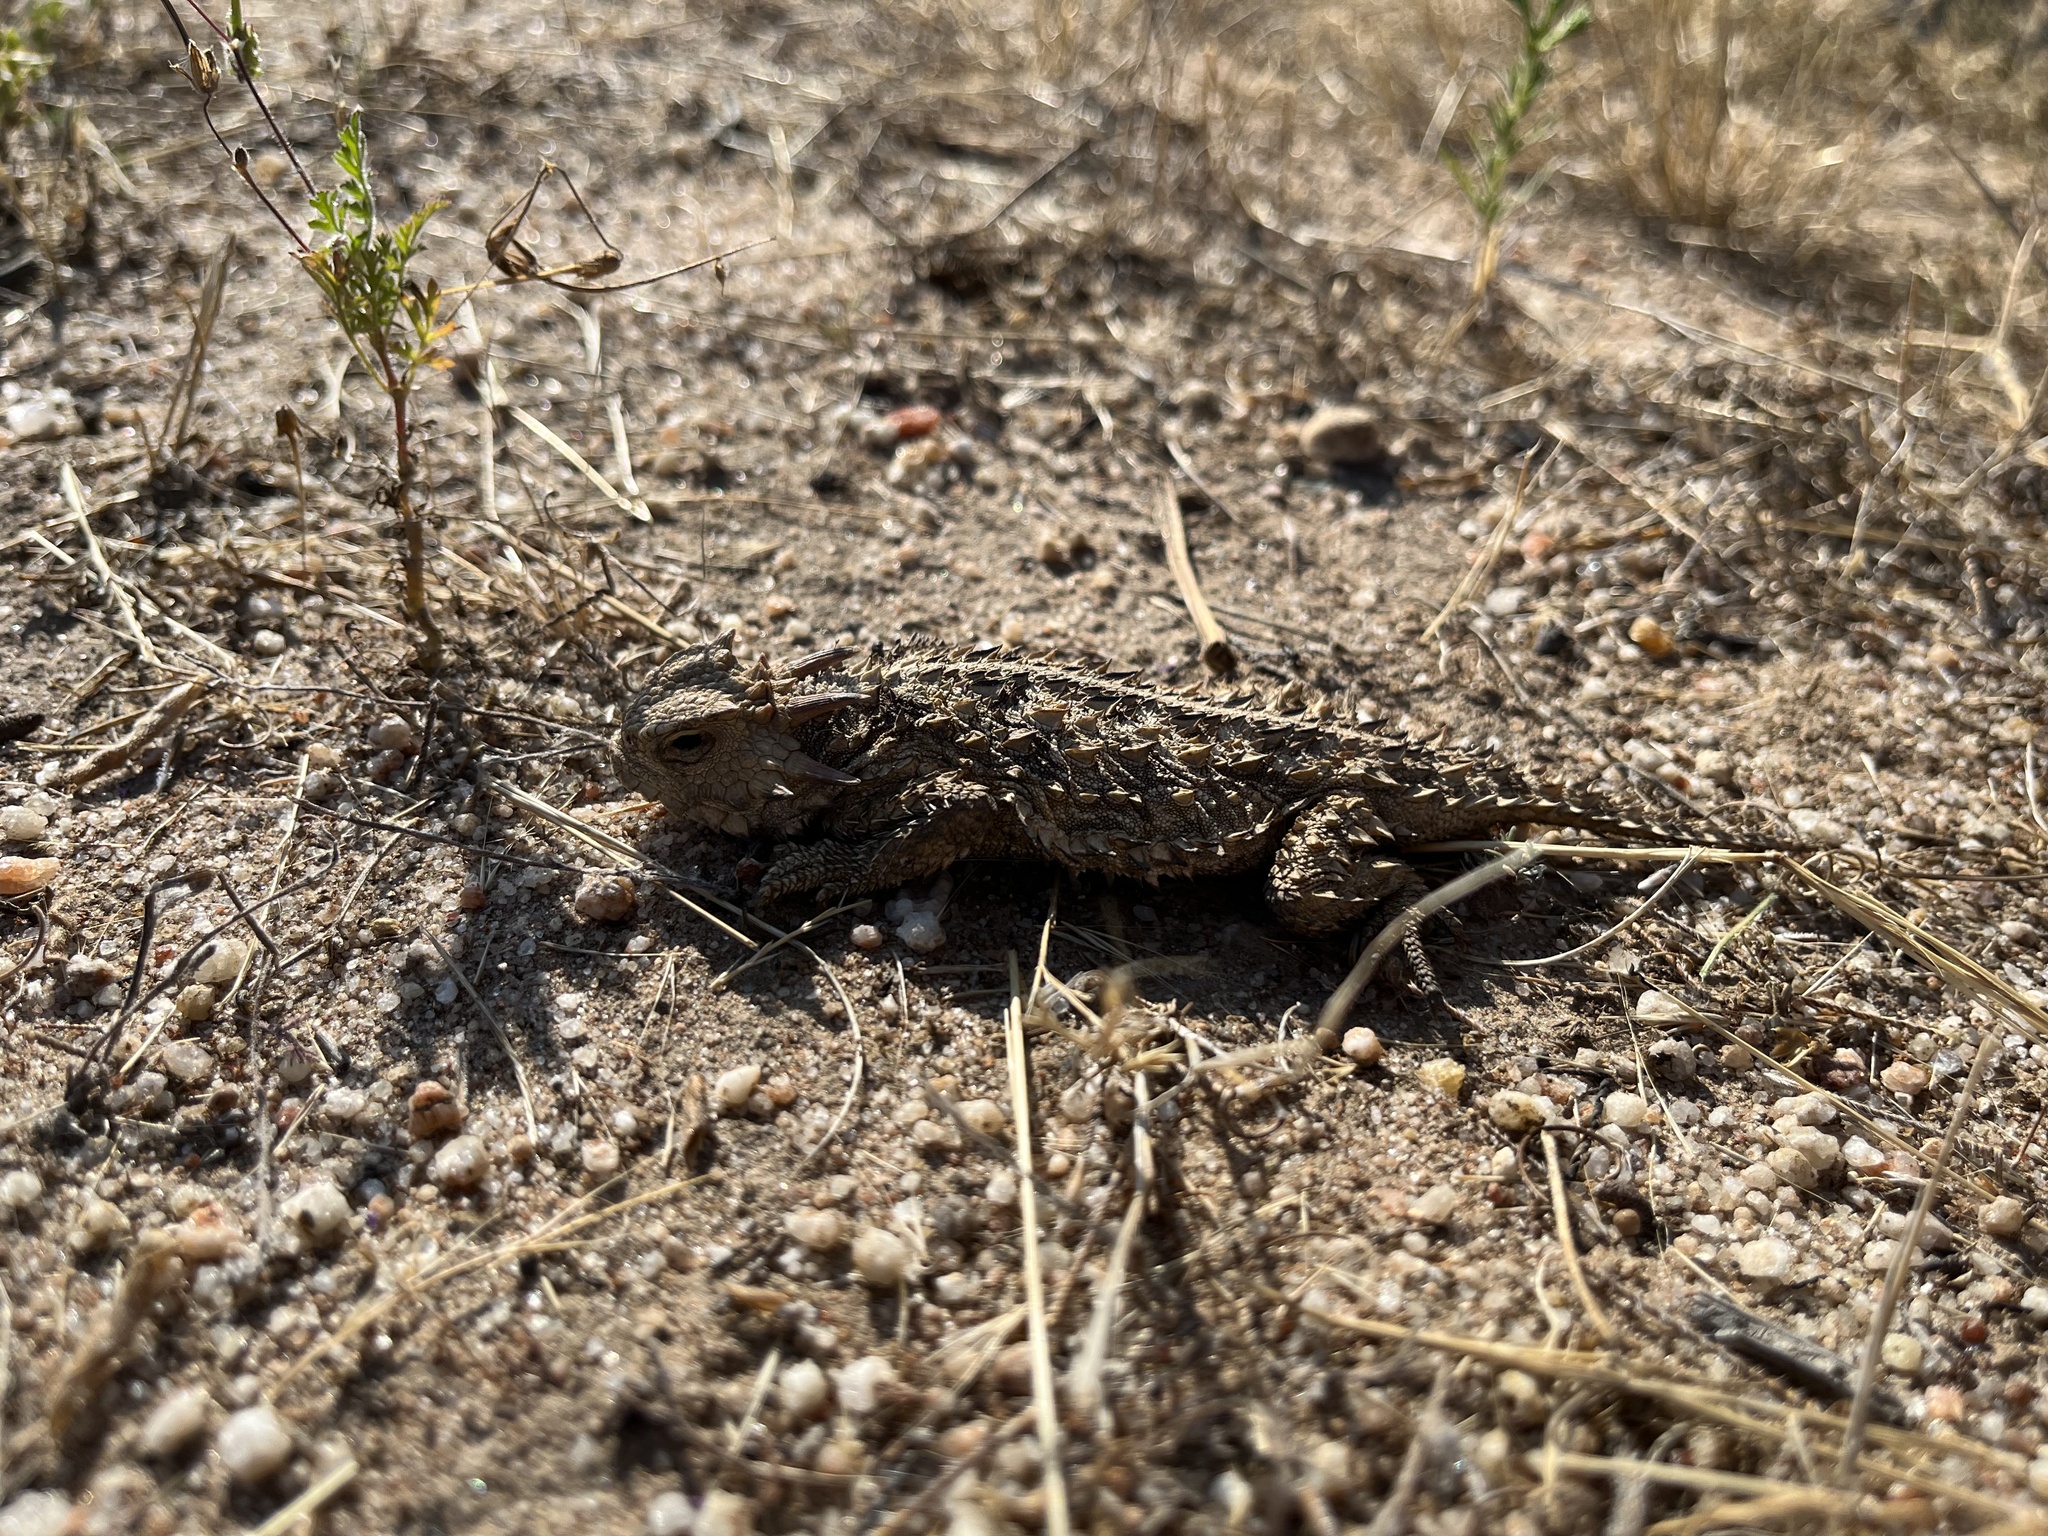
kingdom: Animalia
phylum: Chordata
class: Squamata
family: Phrynosomatidae
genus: Phrynosoma
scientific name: Phrynosoma blainvillii
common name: San diego horned lizard
